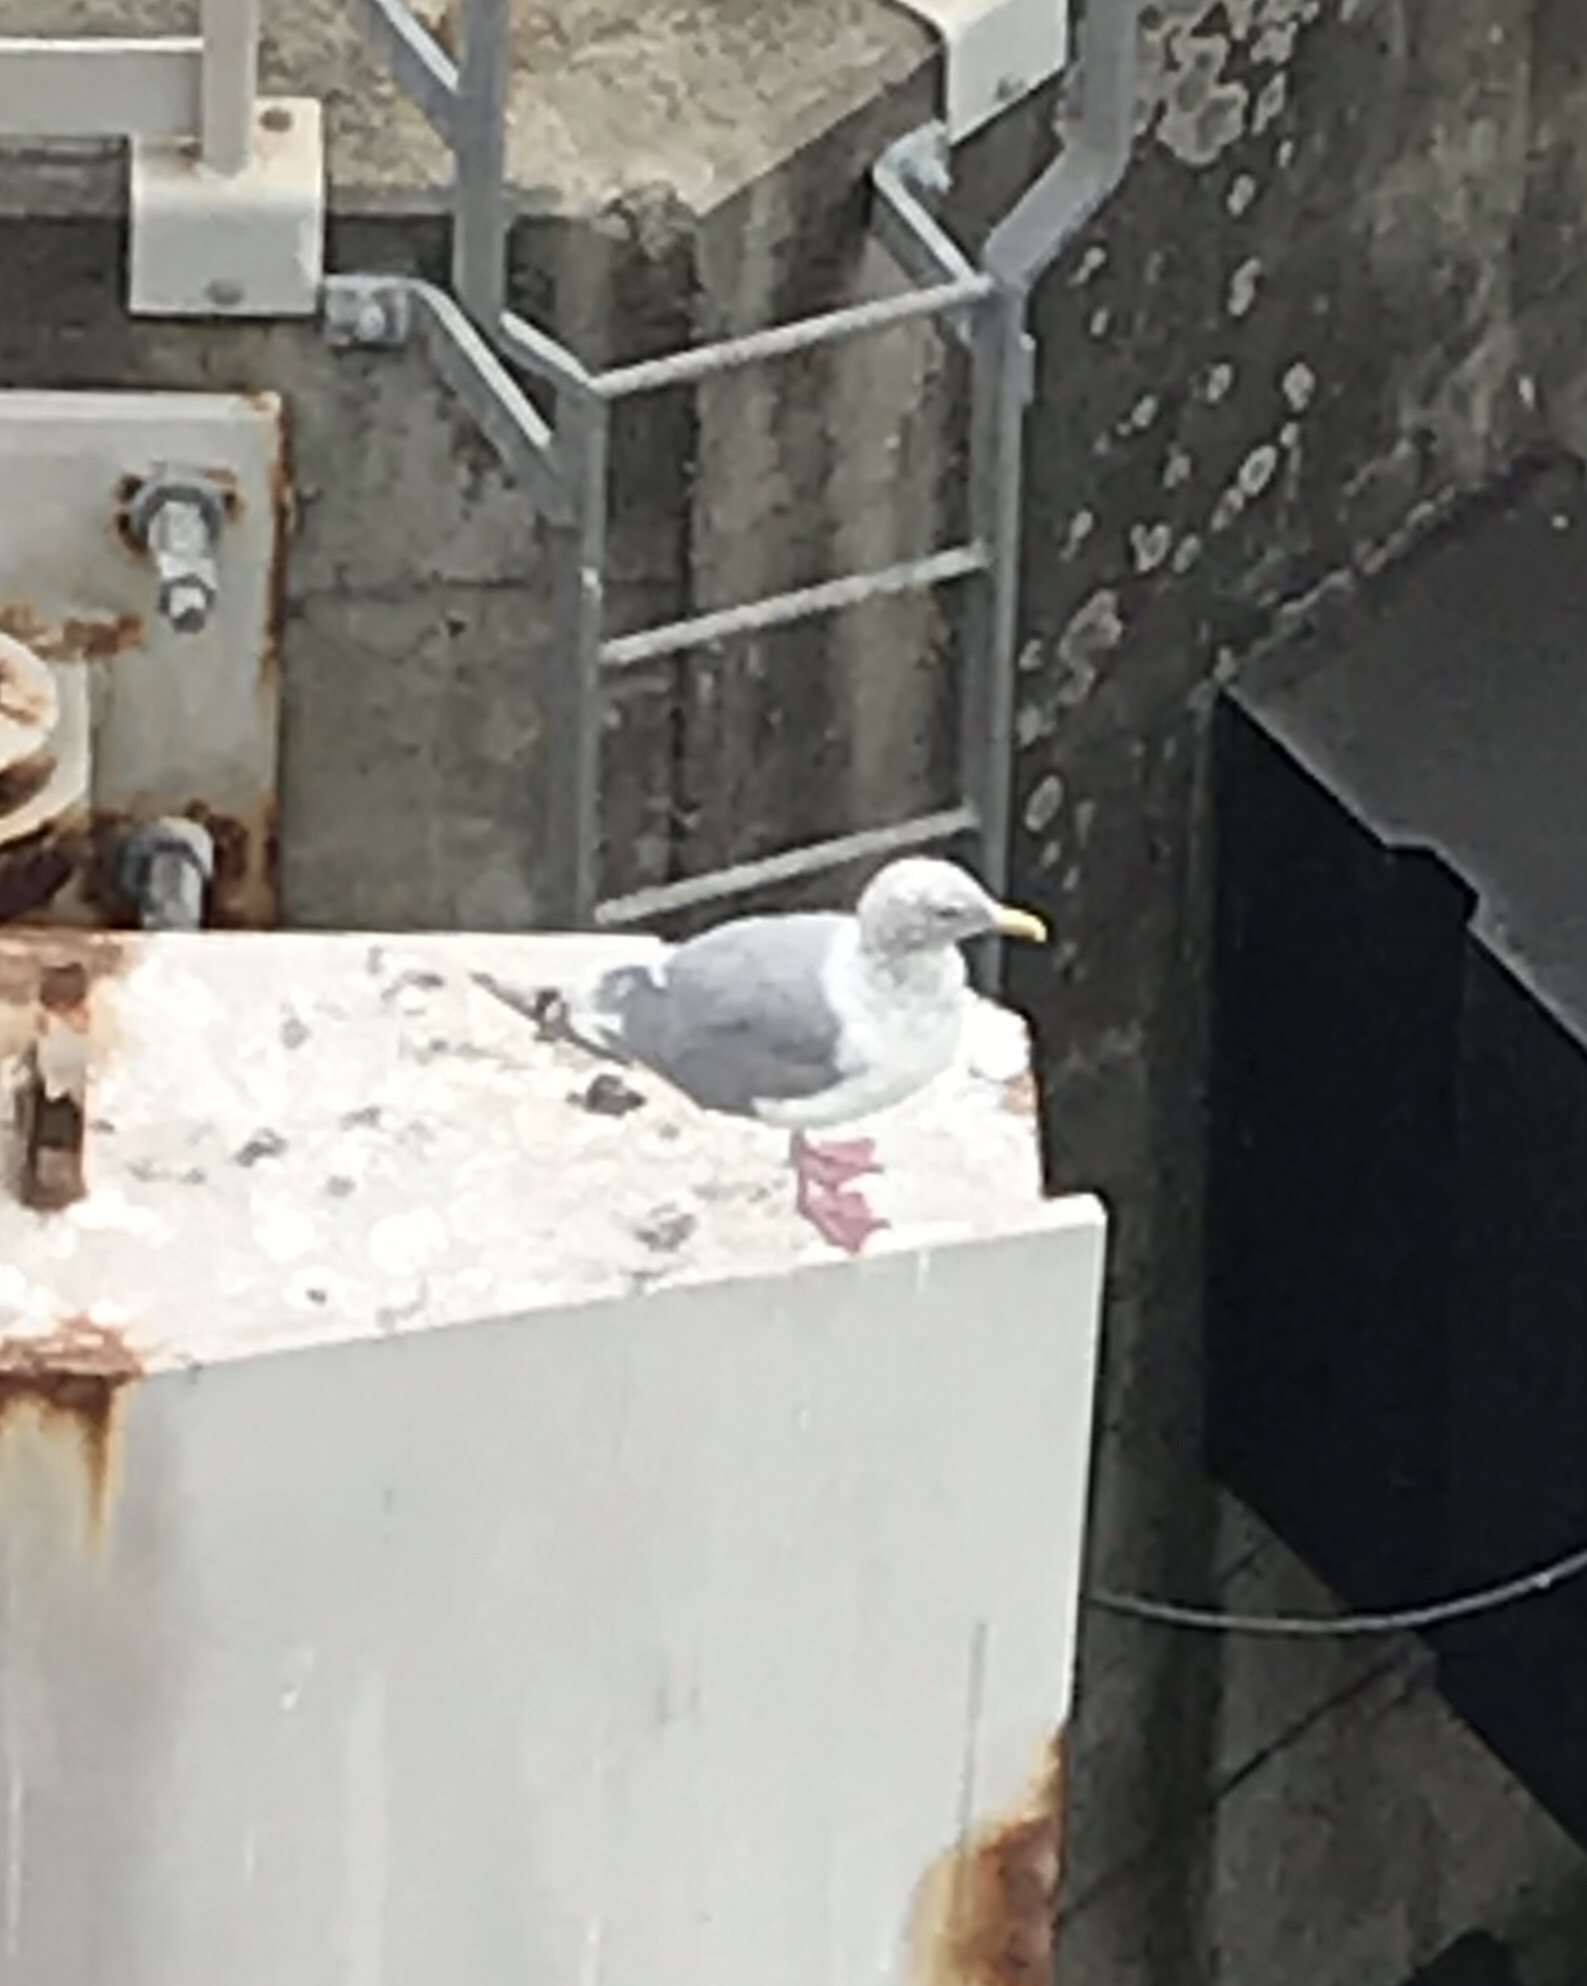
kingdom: Animalia
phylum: Chordata
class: Aves
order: Charadriiformes
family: Laridae
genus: Larus
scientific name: Larus glaucescens
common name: Glaucous-winged gull
